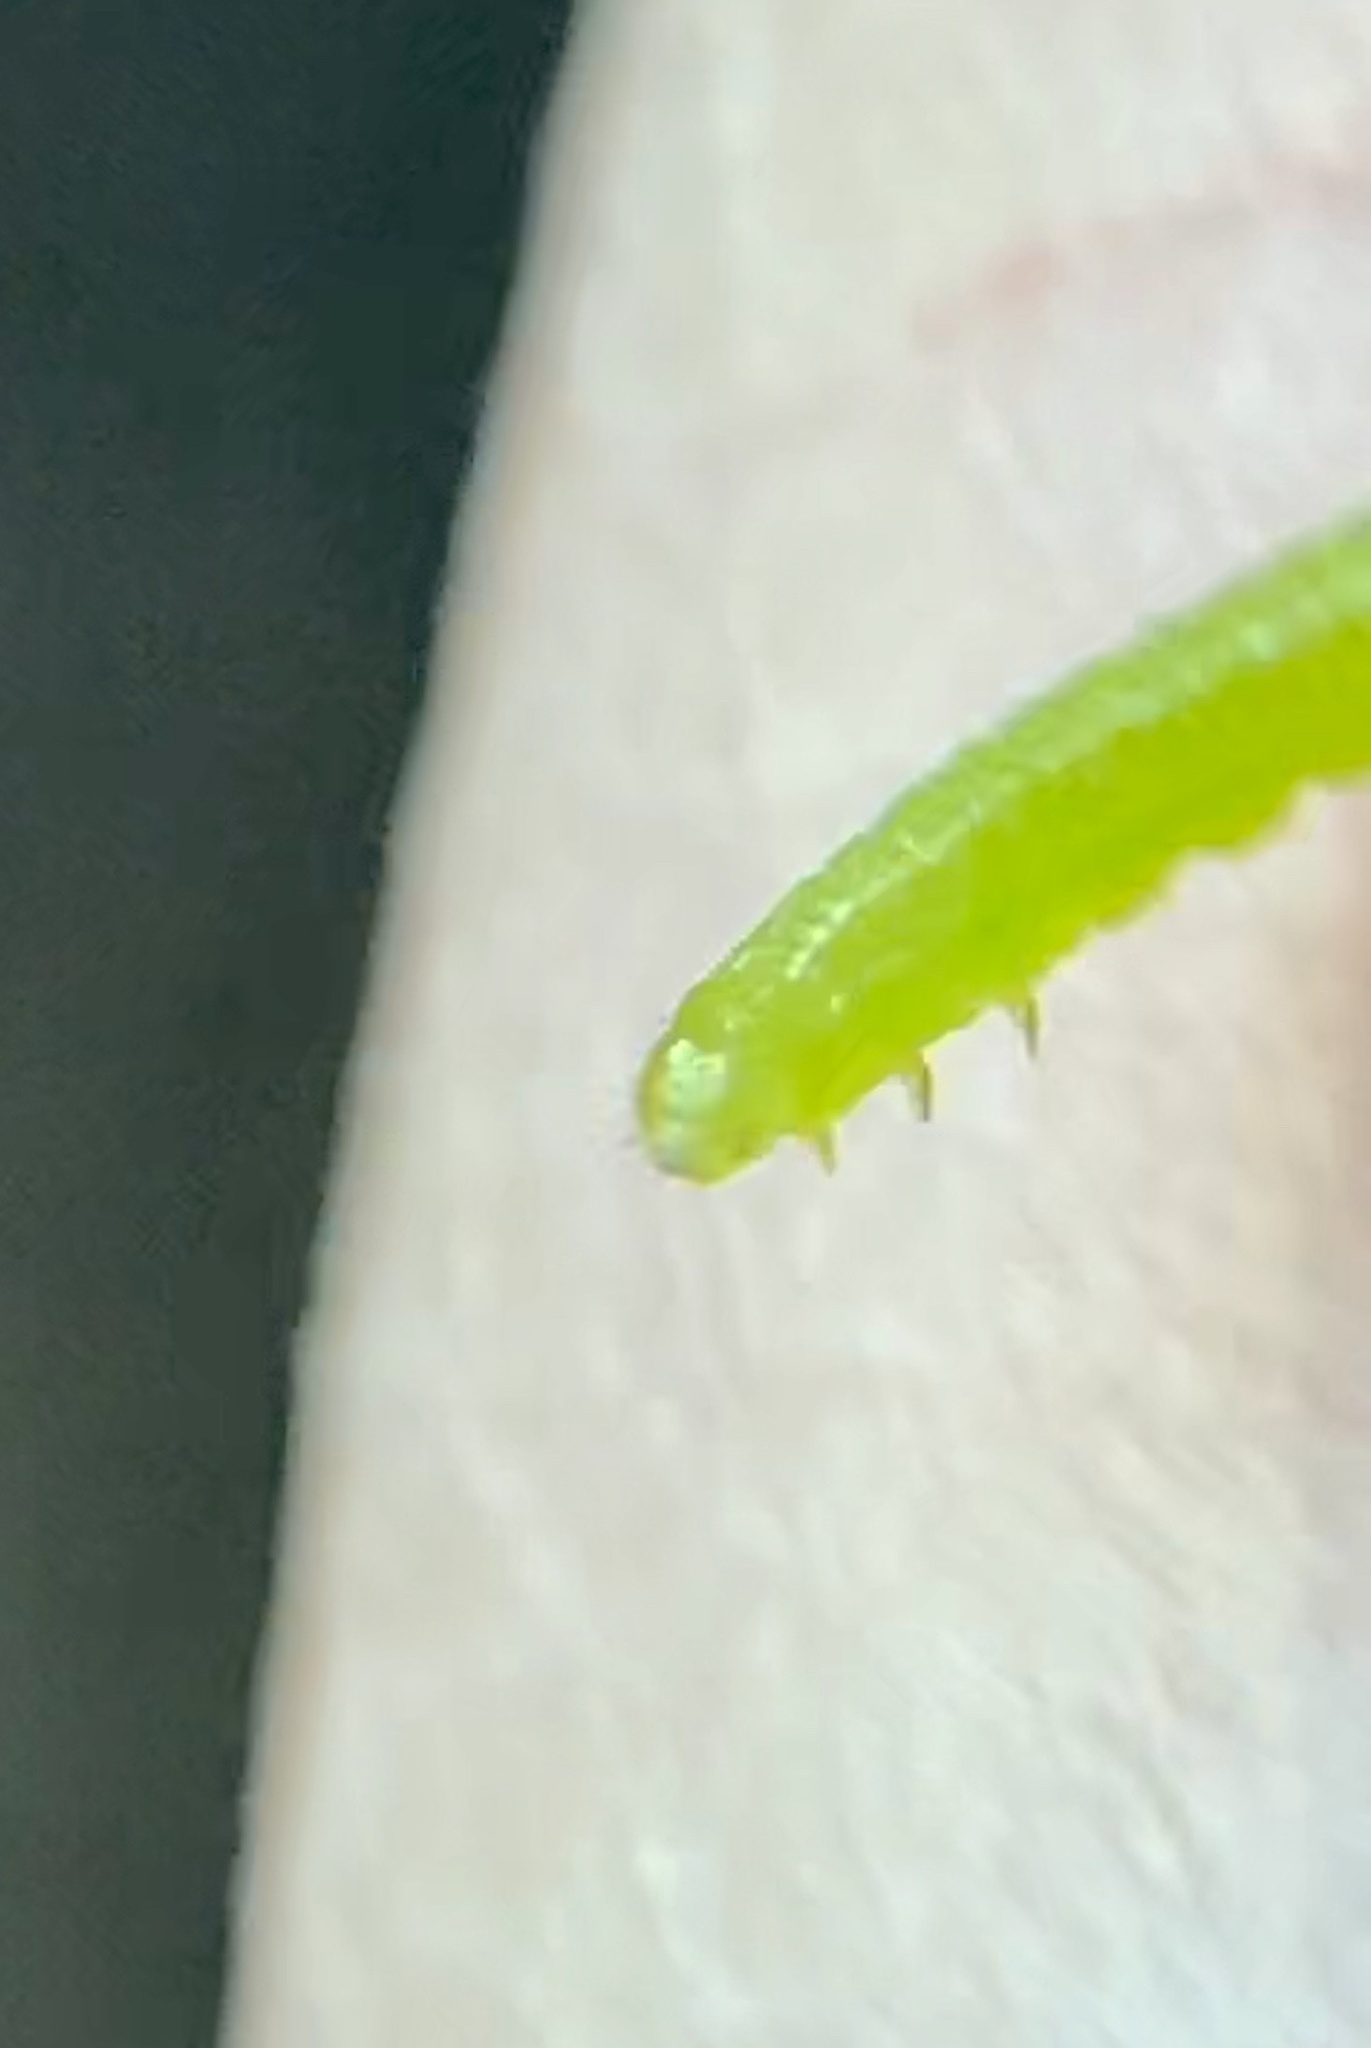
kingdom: Animalia
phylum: Arthropoda
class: Insecta
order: Lepidoptera
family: Noctuidae
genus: Amphipyra
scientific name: Amphipyra pyramidoides
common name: American copper underwing
